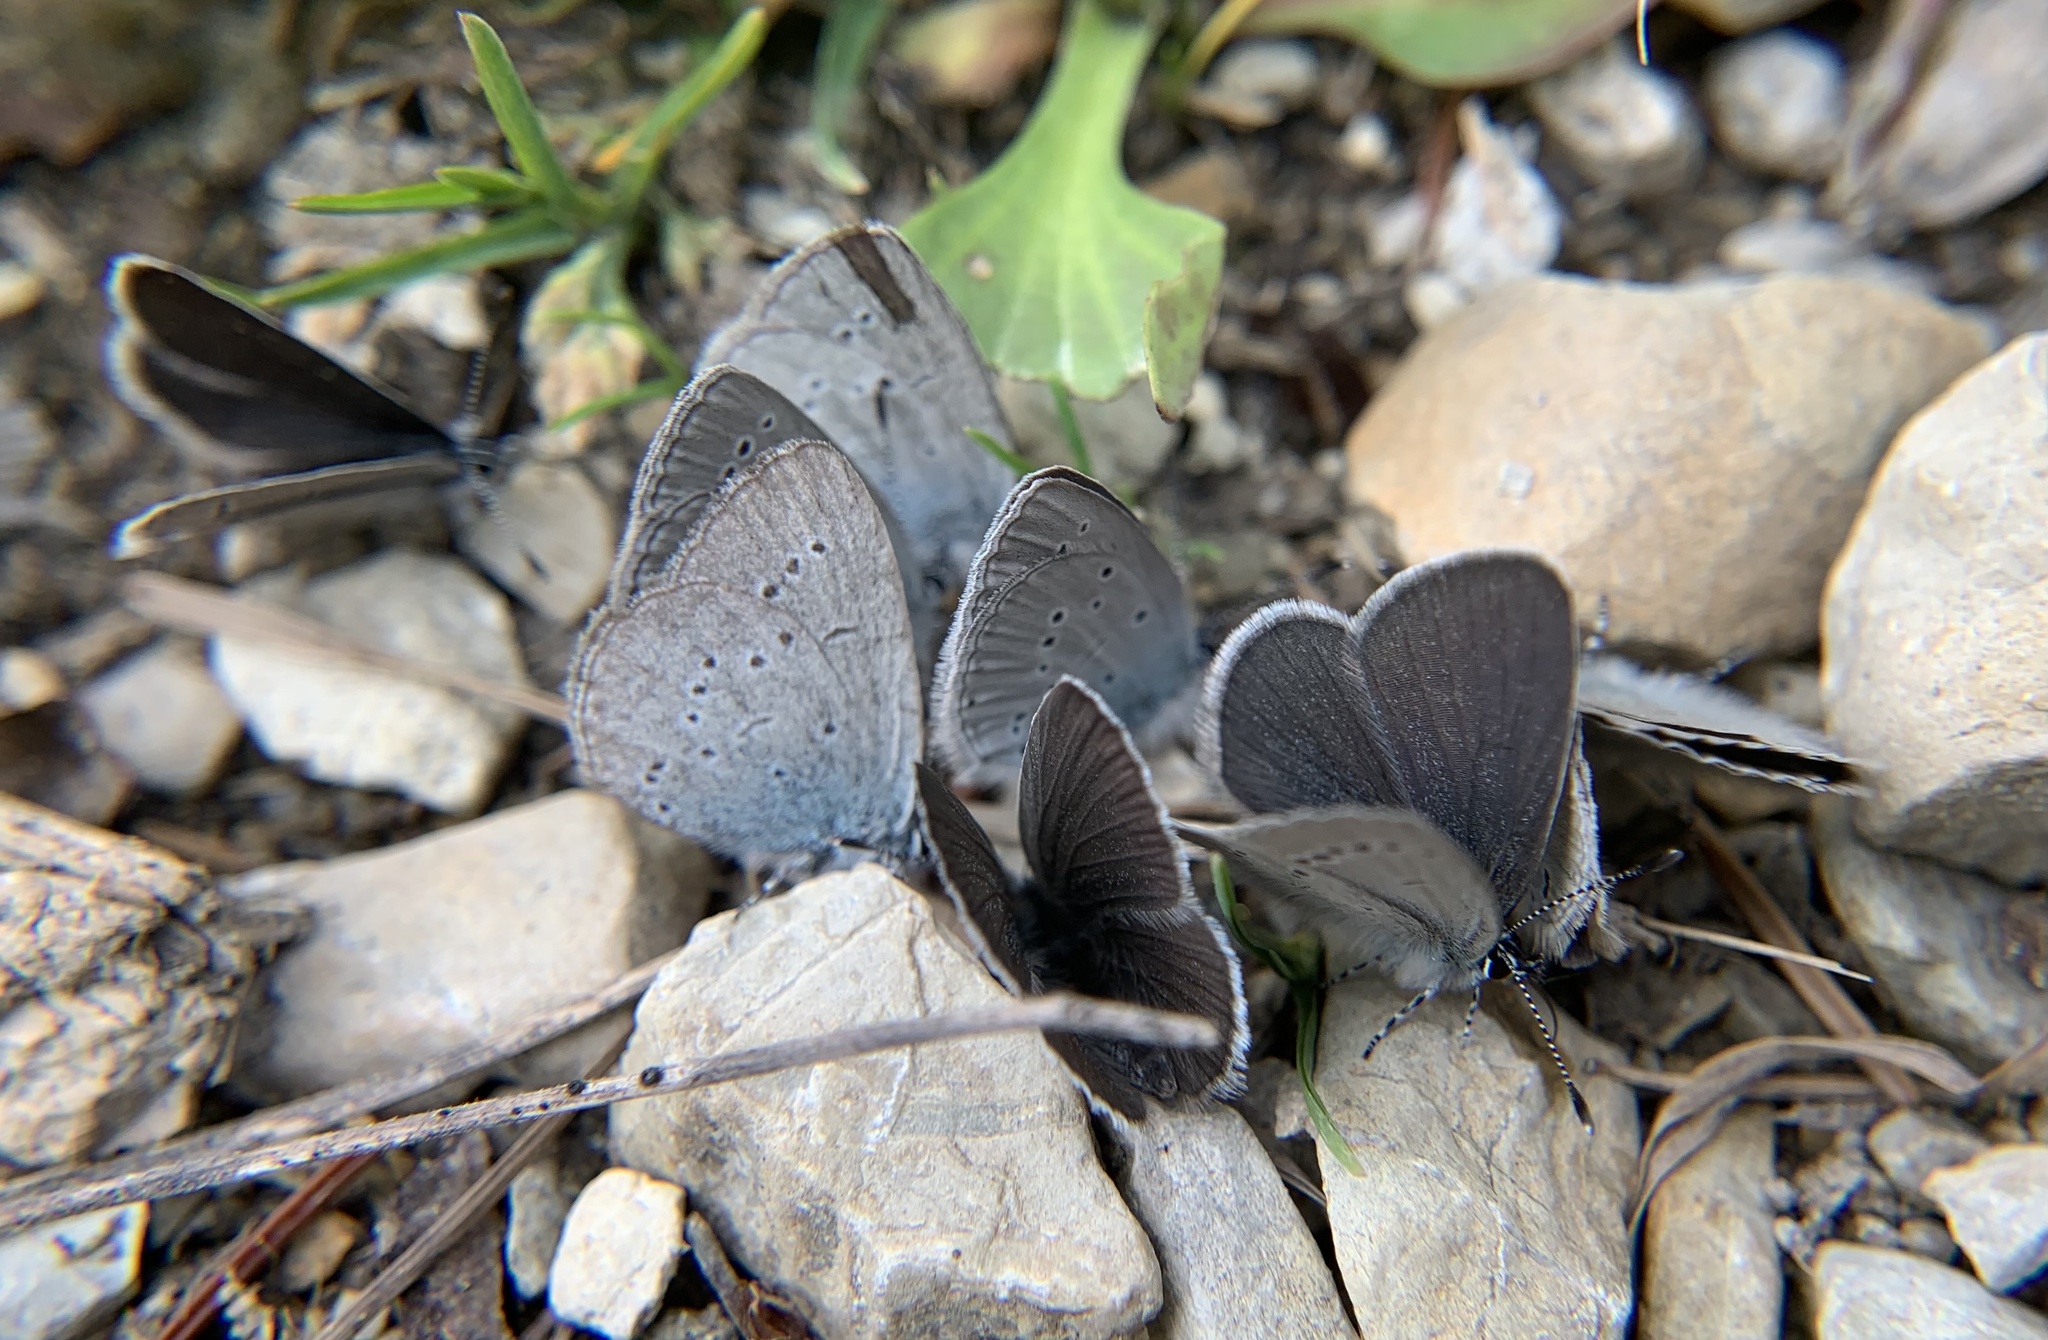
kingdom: Animalia
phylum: Arthropoda
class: Insecta
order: Lepidoptera
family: Lycaenidae
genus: Cupido
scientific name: Cupido minimus
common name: Small blue
